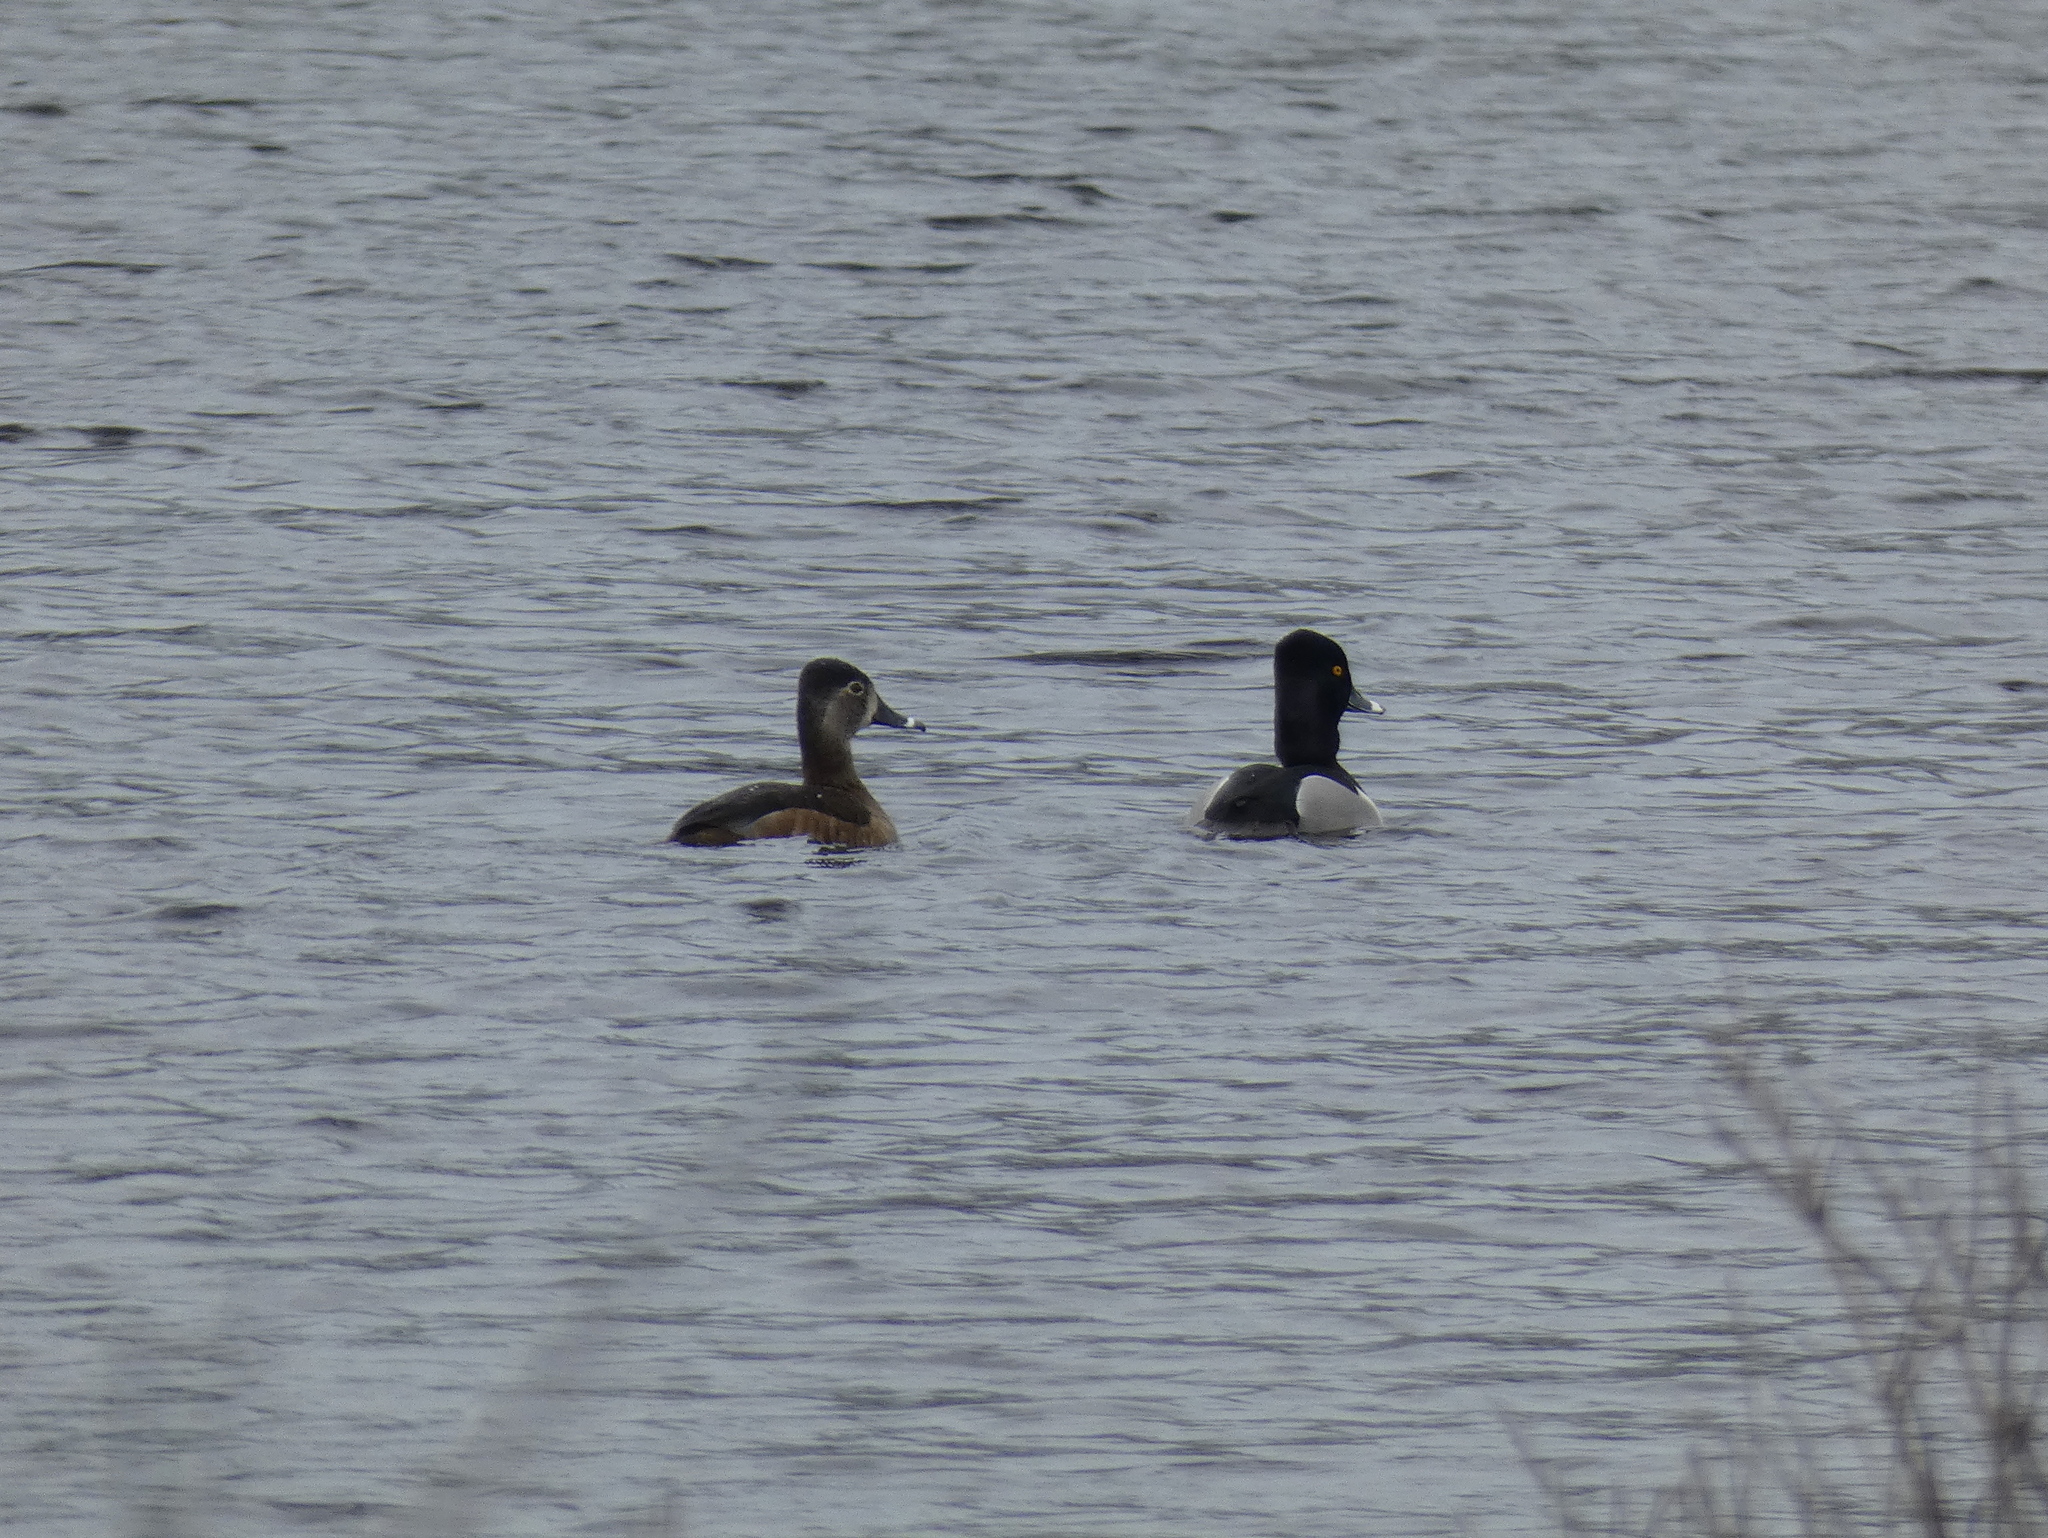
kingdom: Animalia
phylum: Chordata
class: Aves
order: Anseriformes
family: Anatidae
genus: Aythya
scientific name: Aythya collaris
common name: Ring-necked duck
